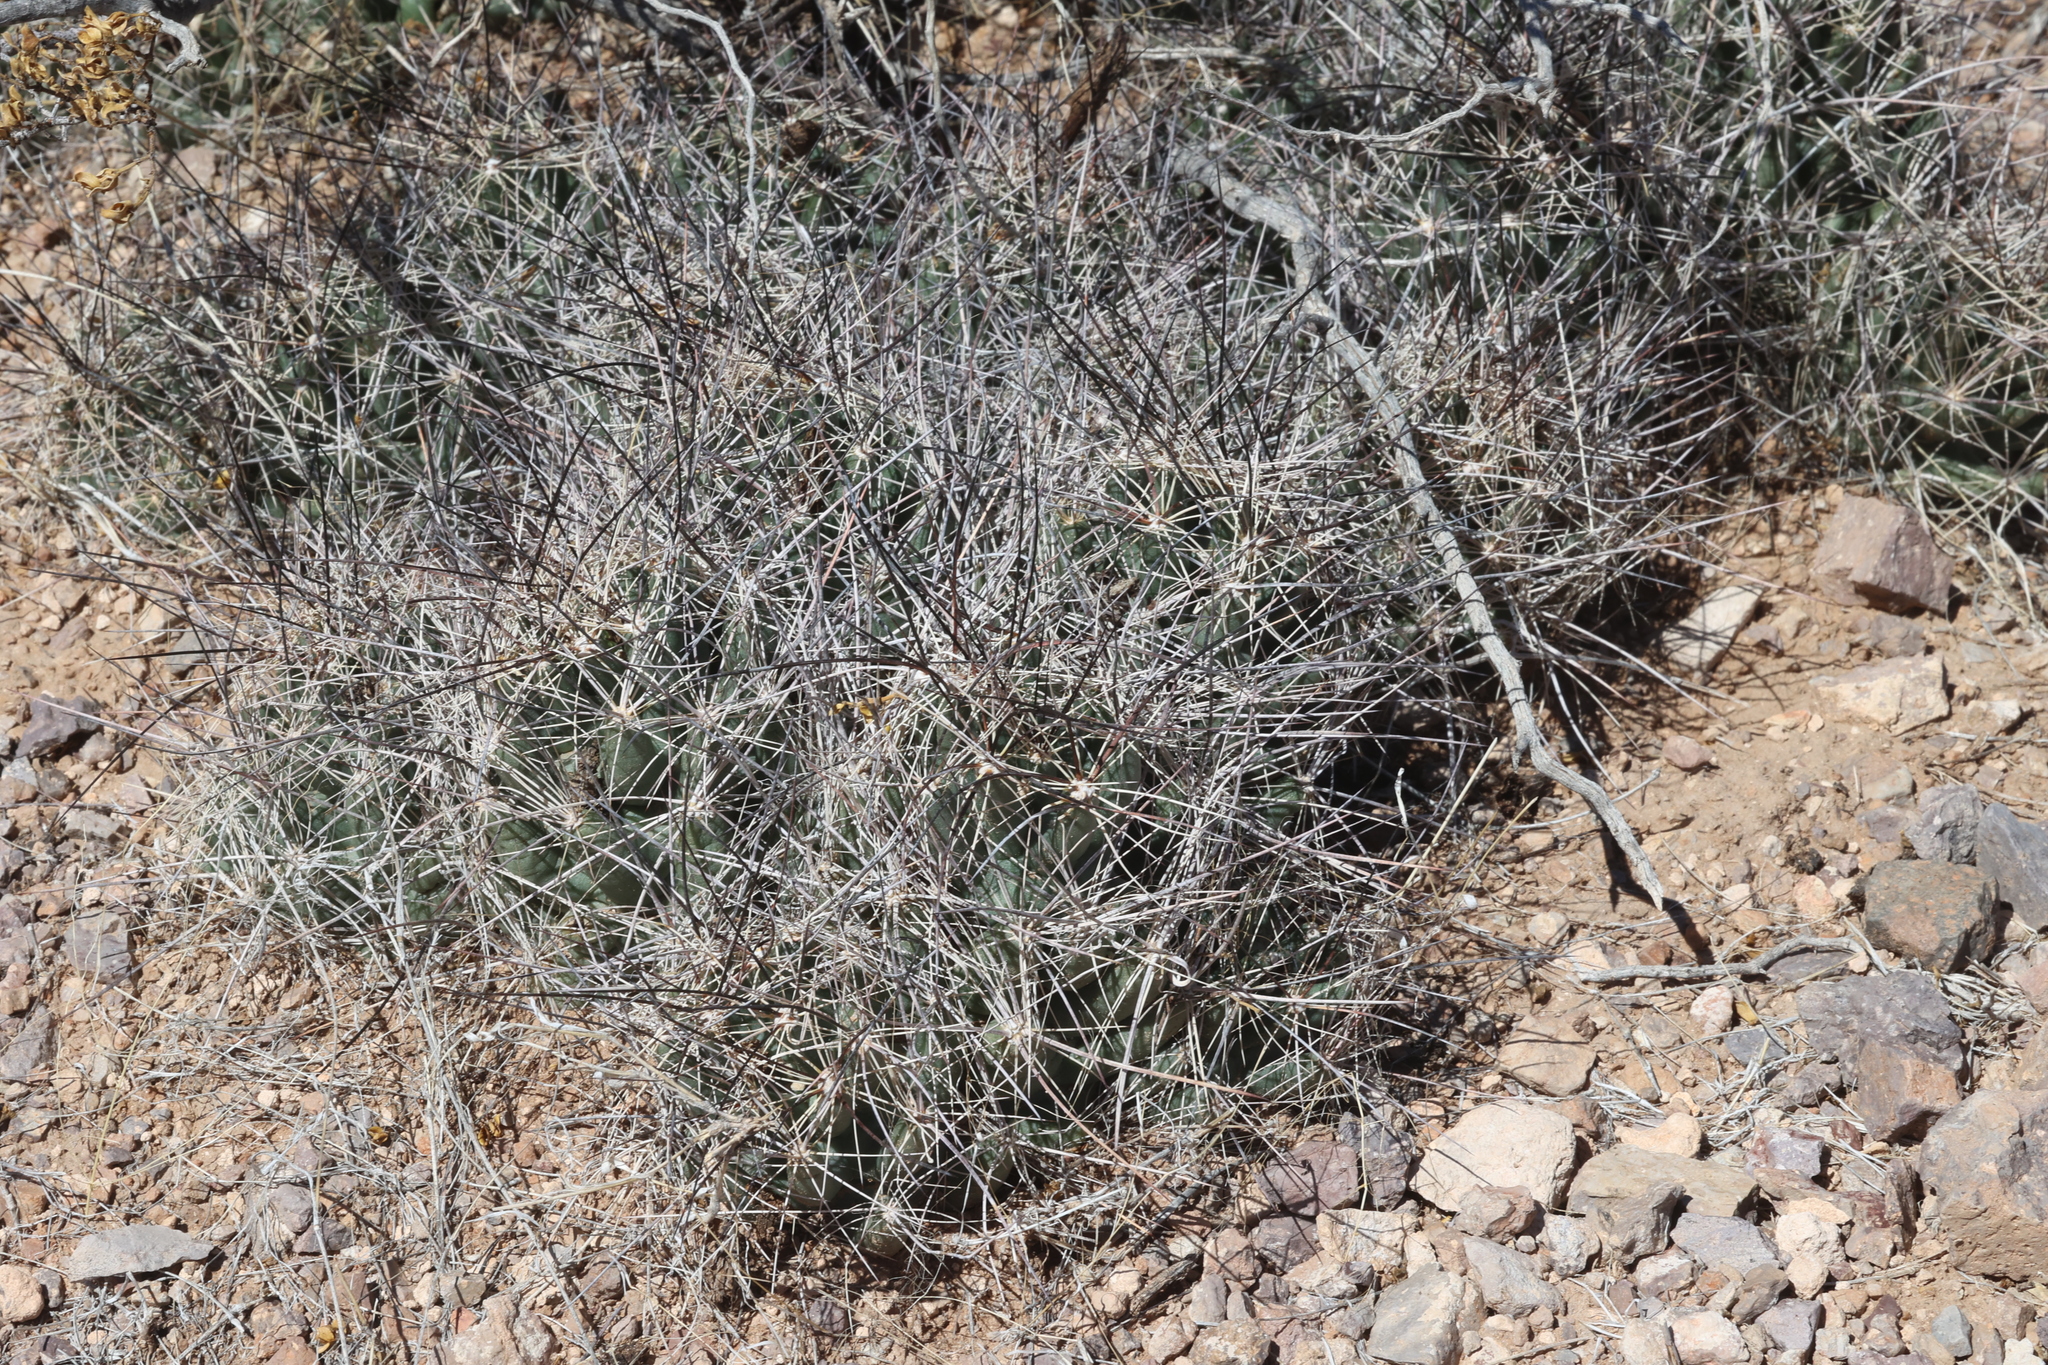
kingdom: Plantae
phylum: Tracheophyta
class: Magnoliopsida
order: Caryophyllales
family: Cactaceae
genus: Coryphantha
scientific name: Coryphantha macromeris
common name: Nipple beehive cactus
